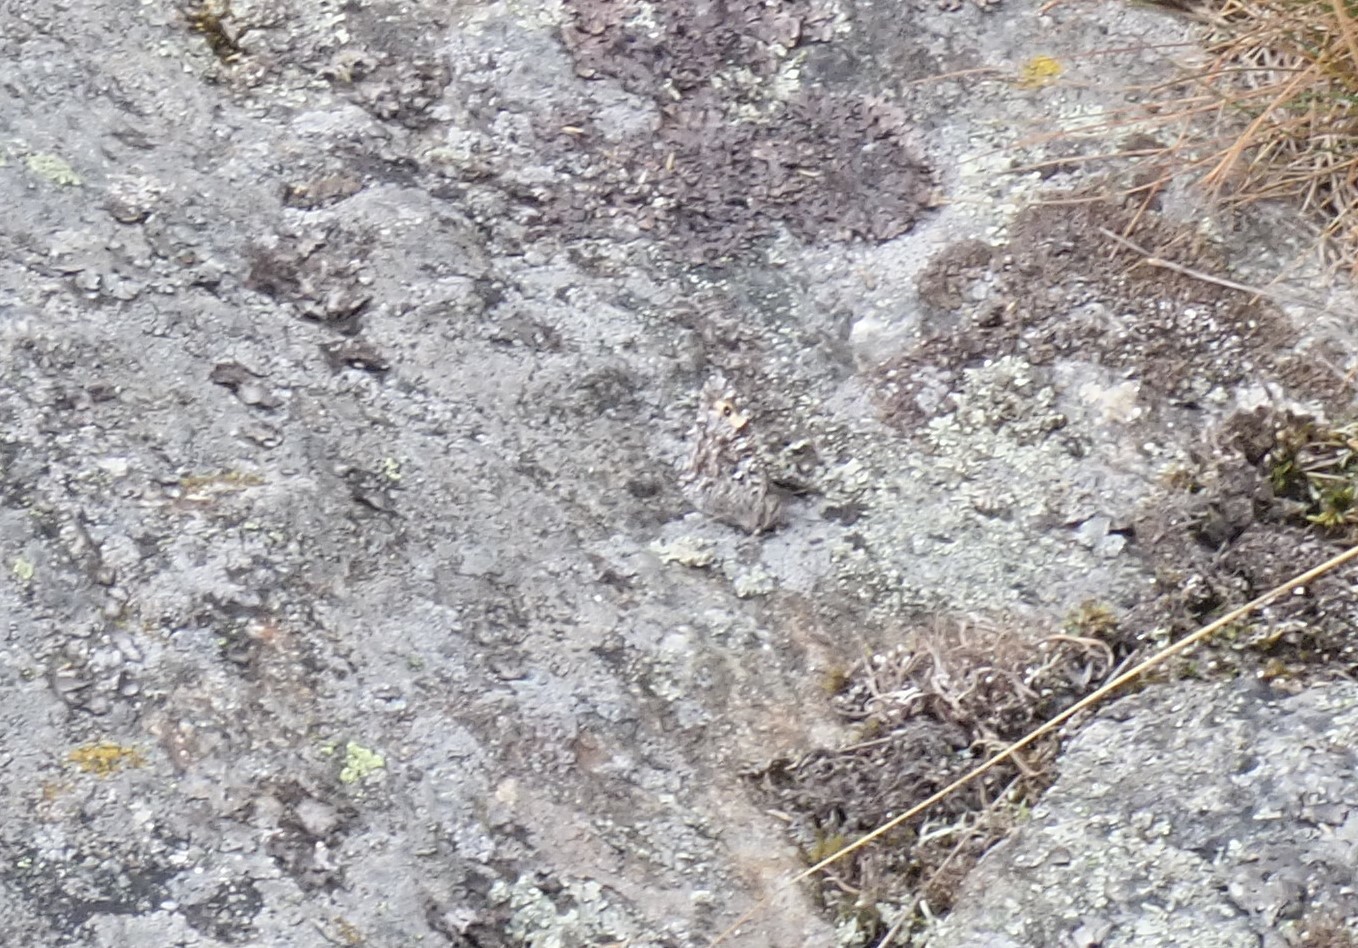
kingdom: Animalia
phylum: Arthropoda
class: Insecta
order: Lepidoptera
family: Nymphalidae
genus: Hipparchia
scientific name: Hipparchia semele
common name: Grayling
